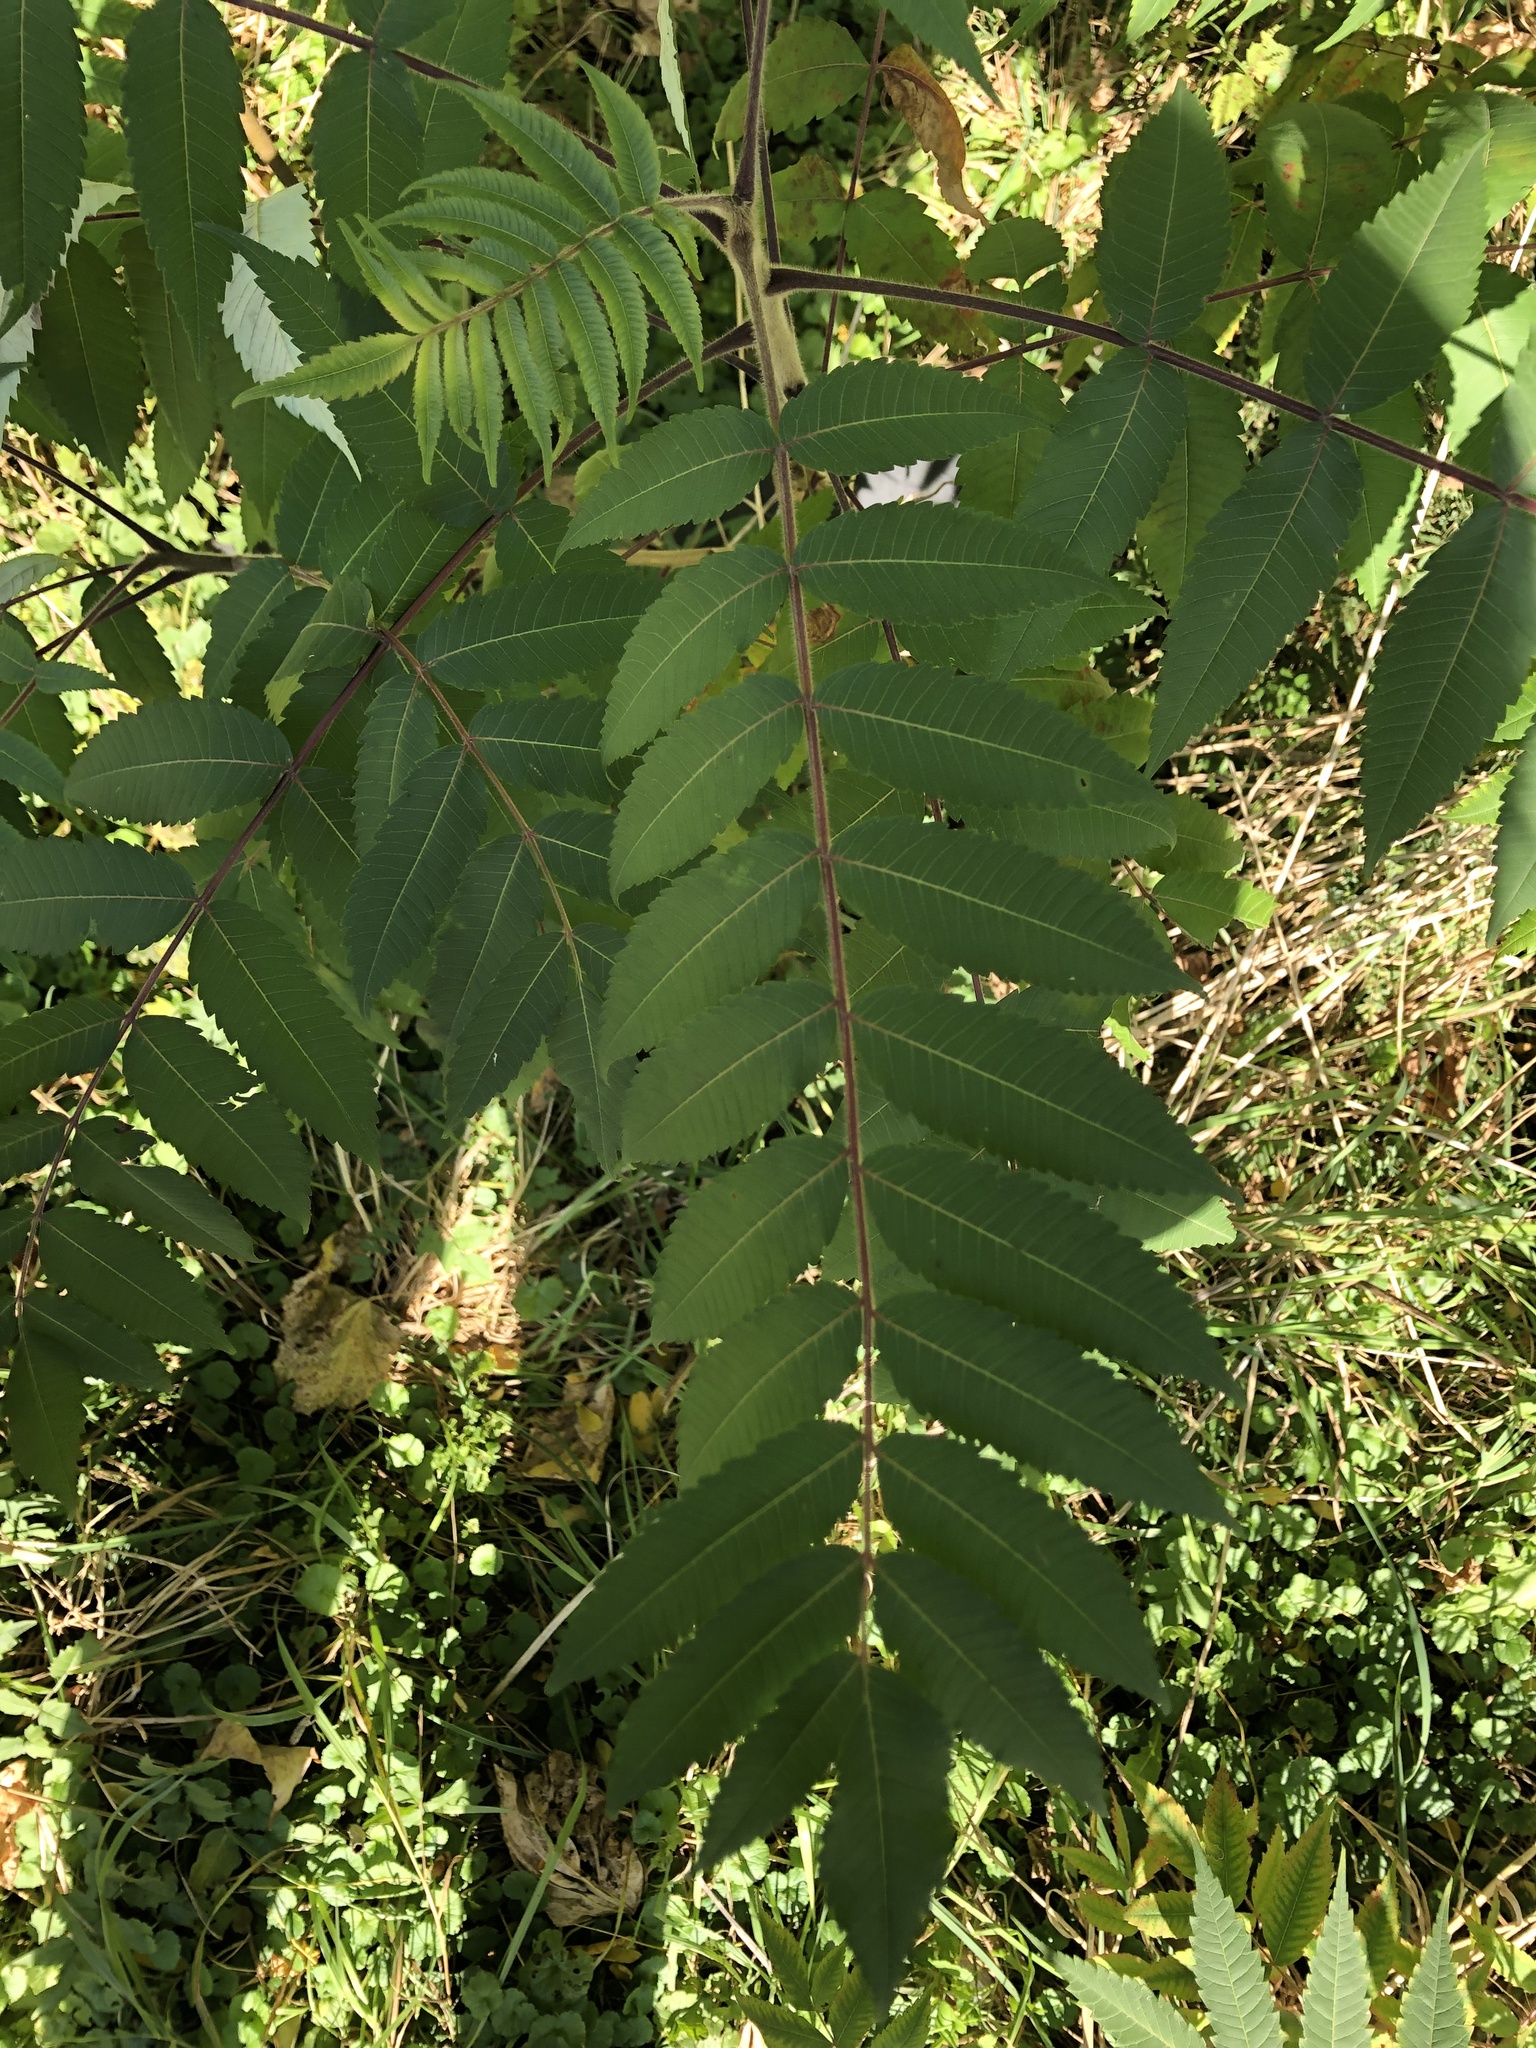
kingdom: Plantae
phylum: Tracheophyta
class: Magnoliopsida
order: Sapindales
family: Anacardiaceae
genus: Rhus
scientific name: Rhus typhina
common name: Staghorn sumac
